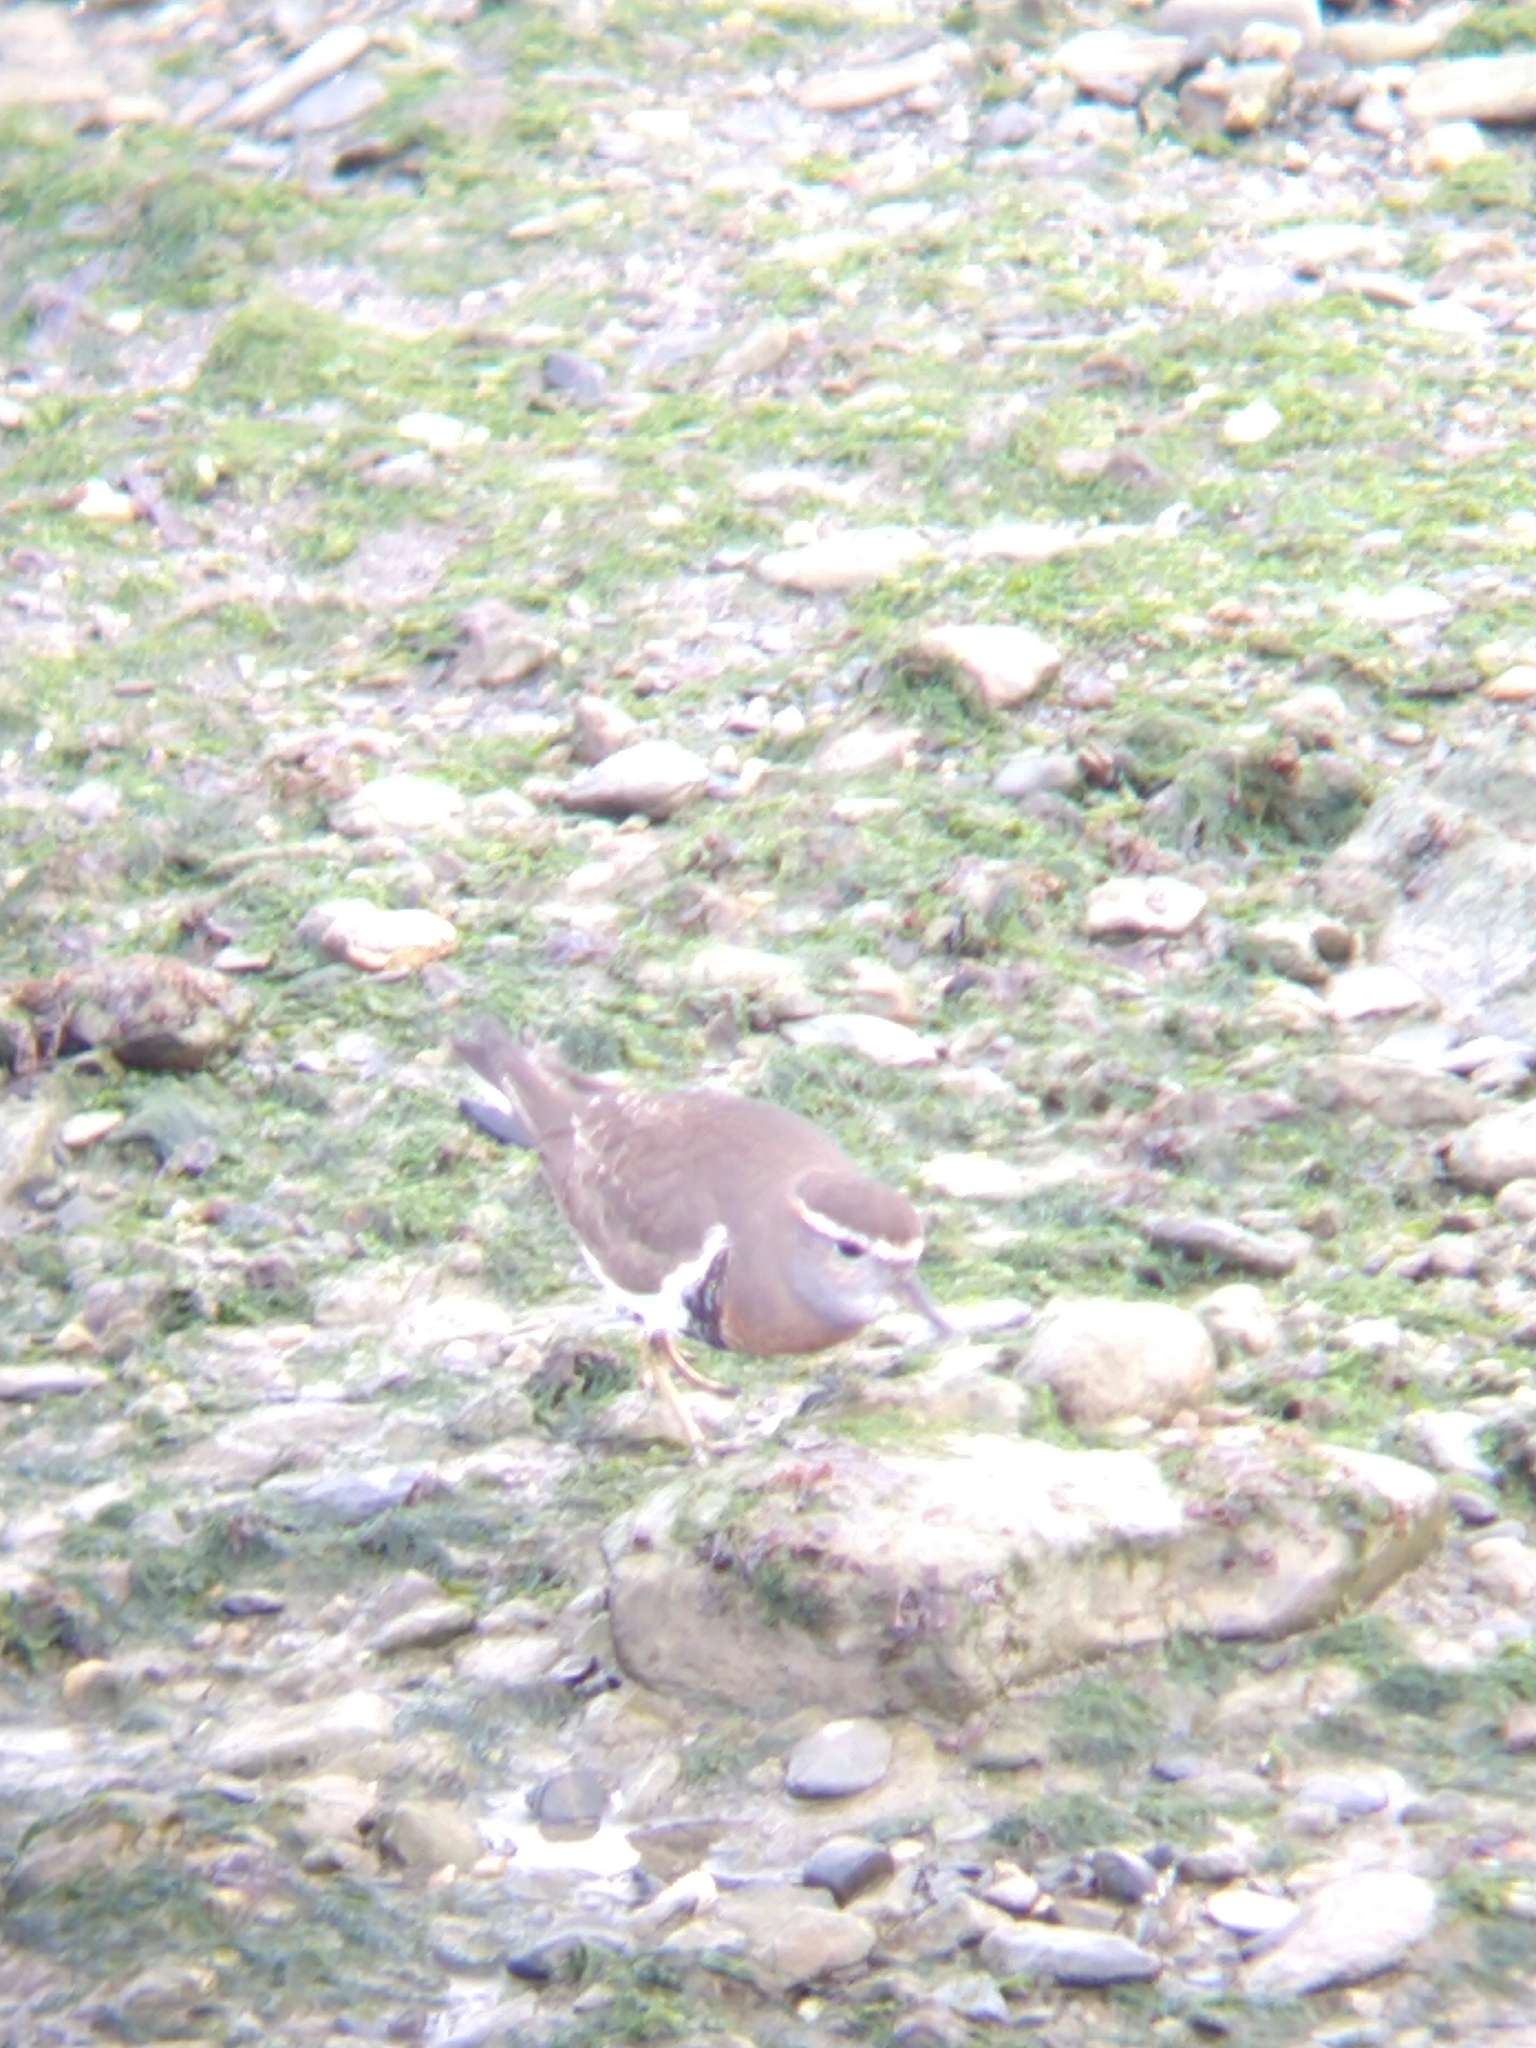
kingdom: Animalia
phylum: Chordata
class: Aves
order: Charadriiformes
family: Charadriidae
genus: Charadrius
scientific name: Charadrius modestus
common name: Rufous-chested plover
